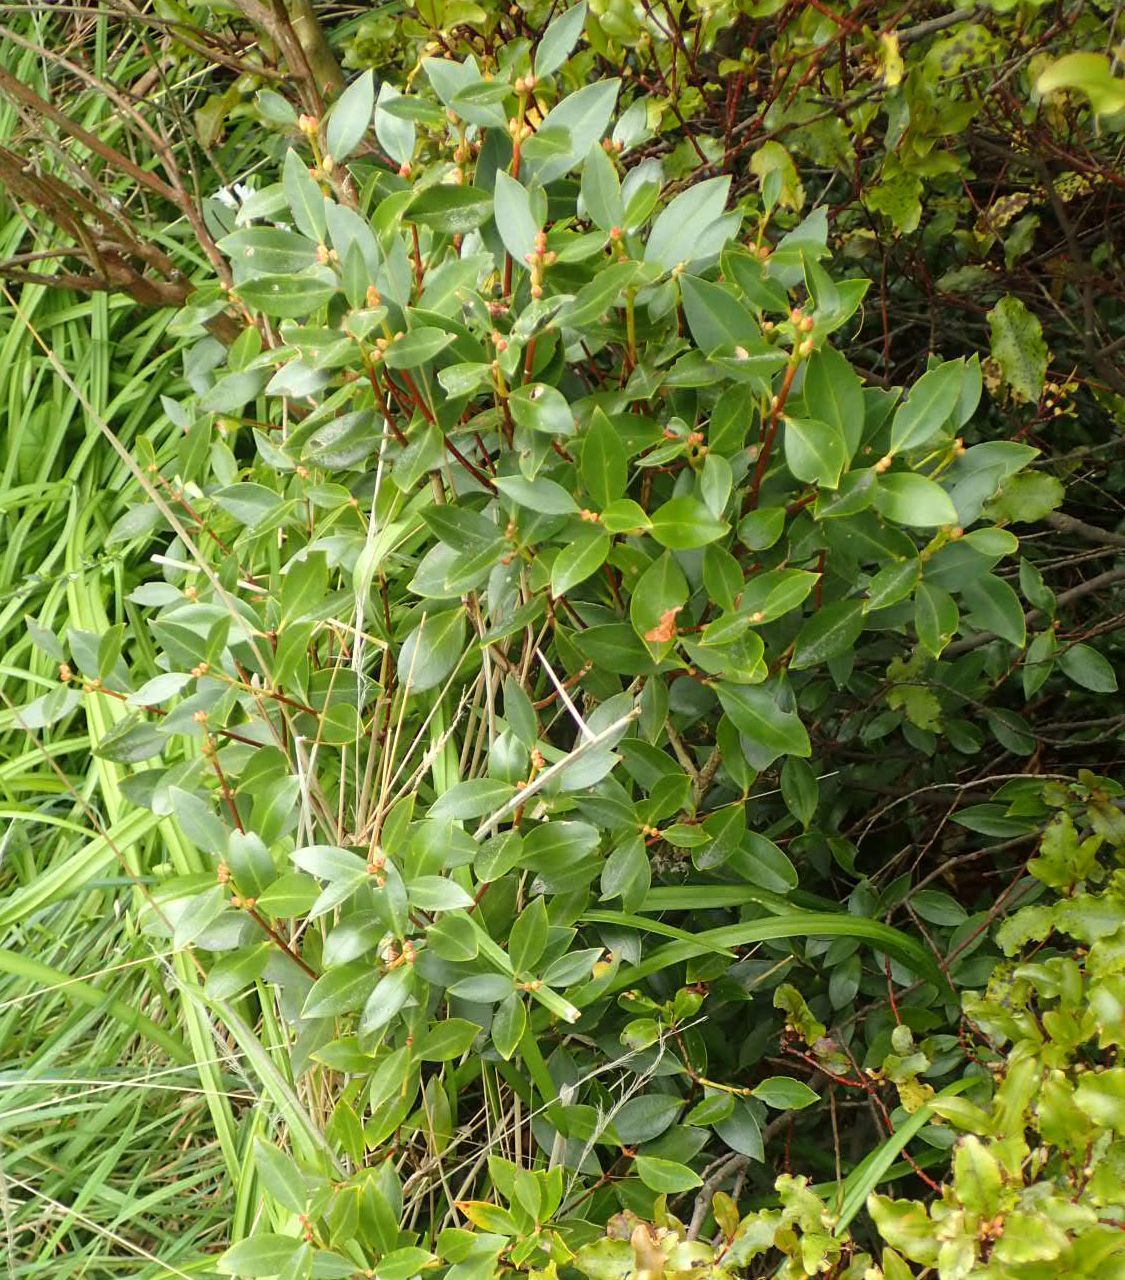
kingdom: Plantae
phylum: Tracheophyta
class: Magnoliopsida
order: Myrtales
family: Myrtaceae
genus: Metrosideros
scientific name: Metrosideros umbellata
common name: Southern rata
